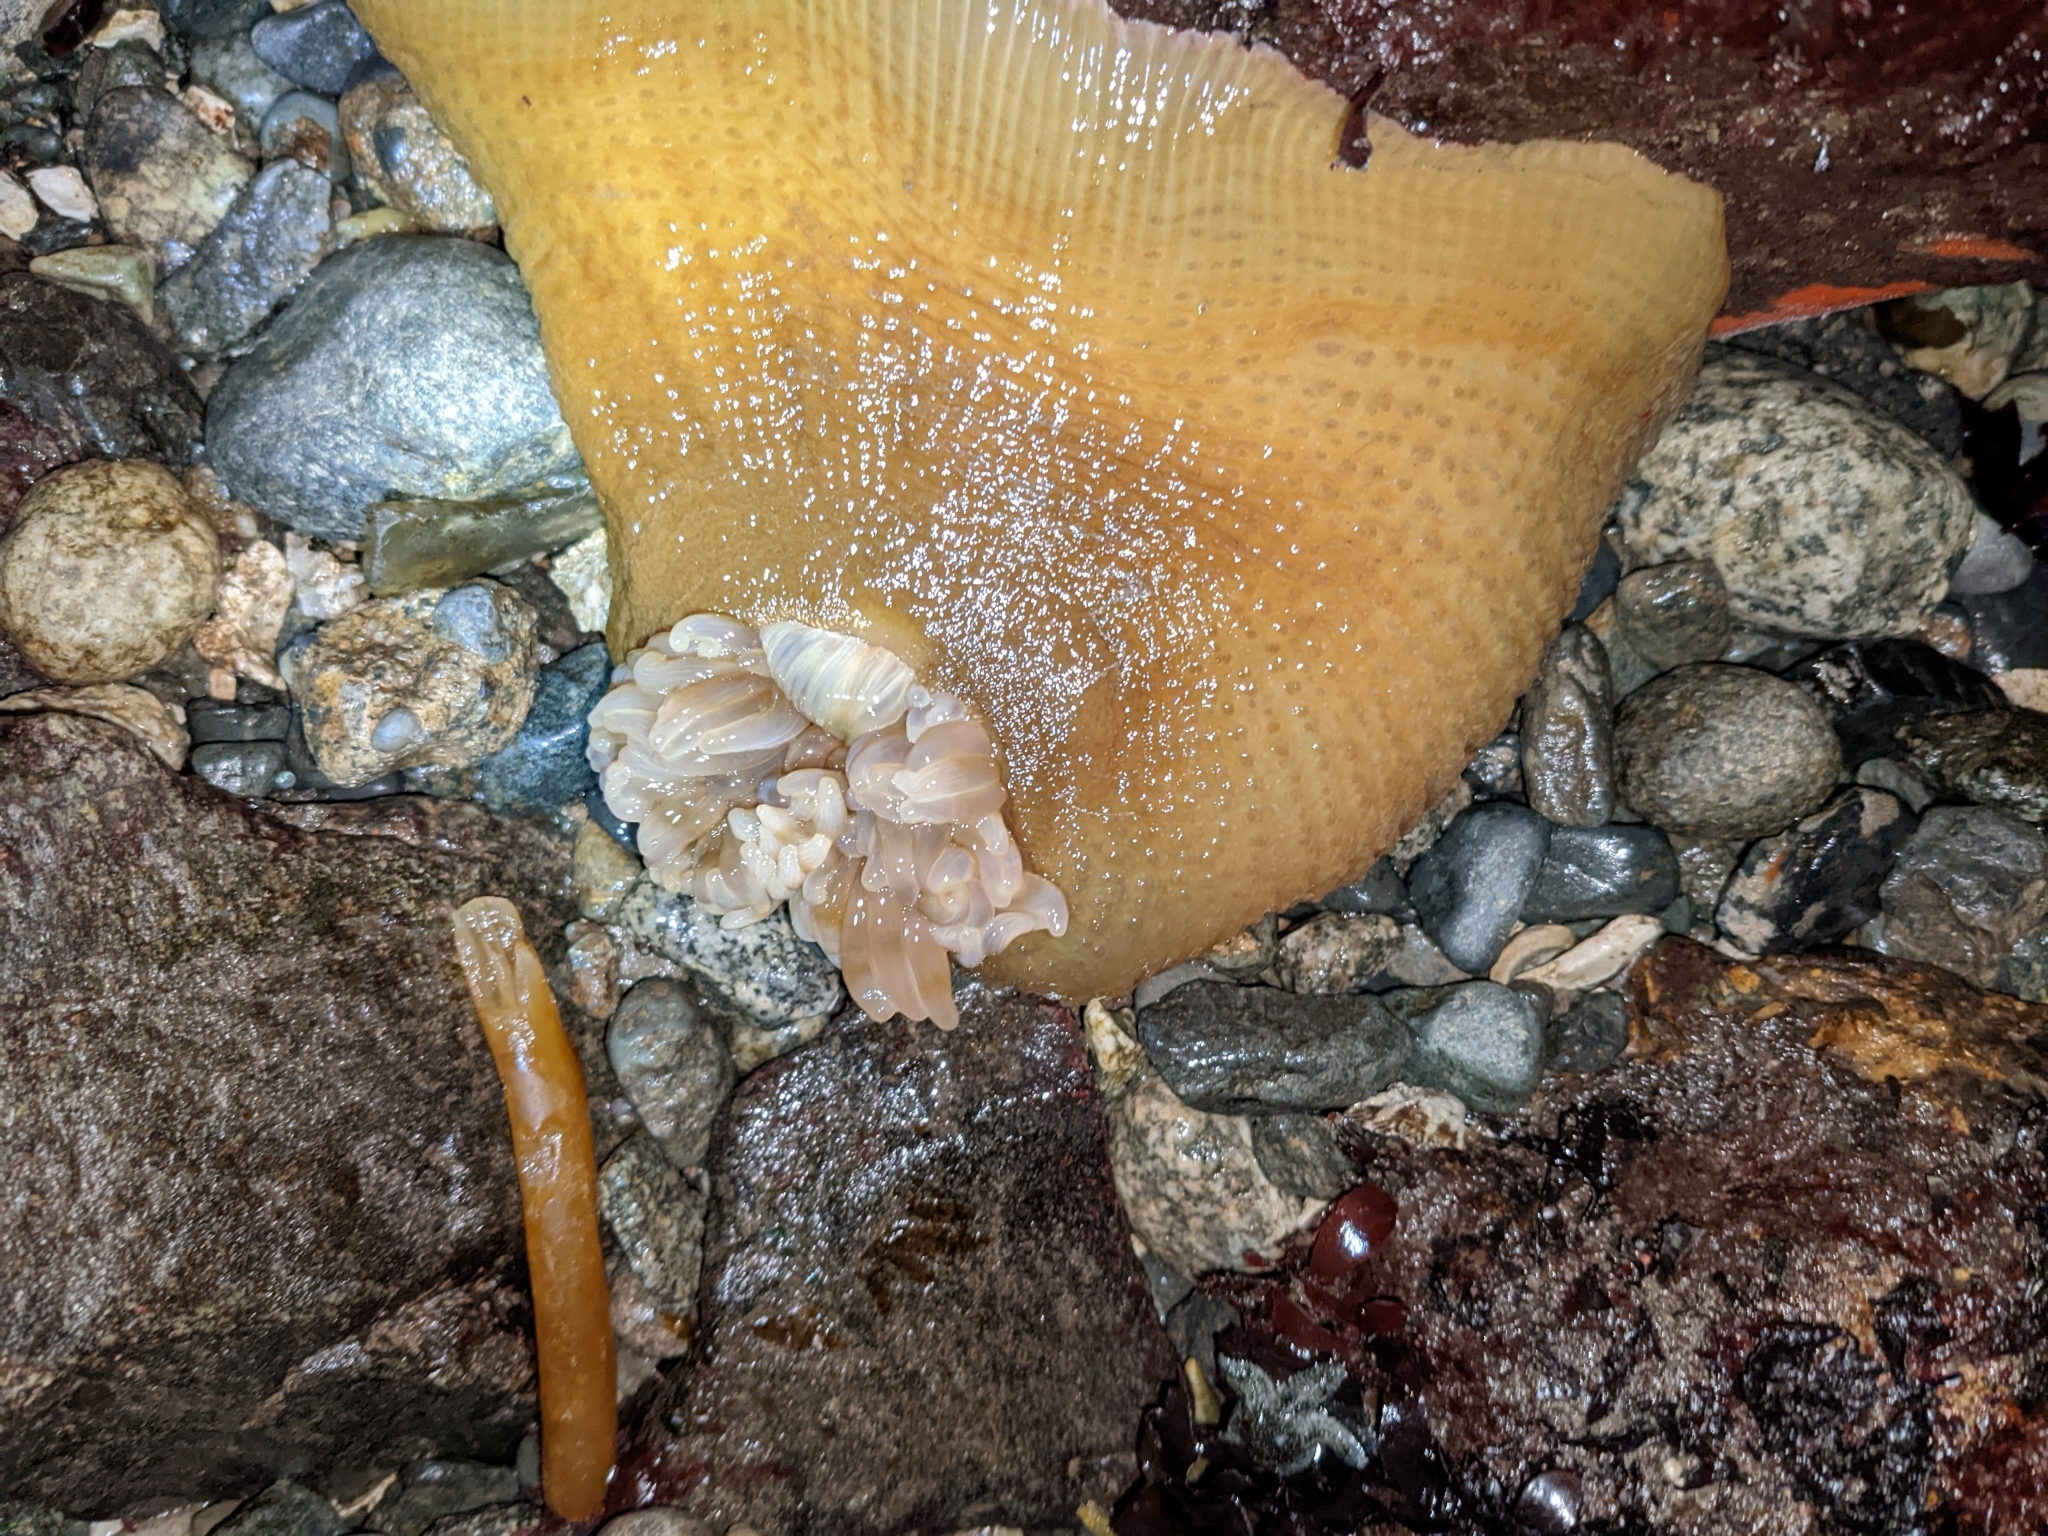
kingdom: Animalia
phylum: Cnidaria
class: Anthozoa
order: Actiniaria
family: Actiniidae
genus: Urticina
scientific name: Urticina grebelnyi
